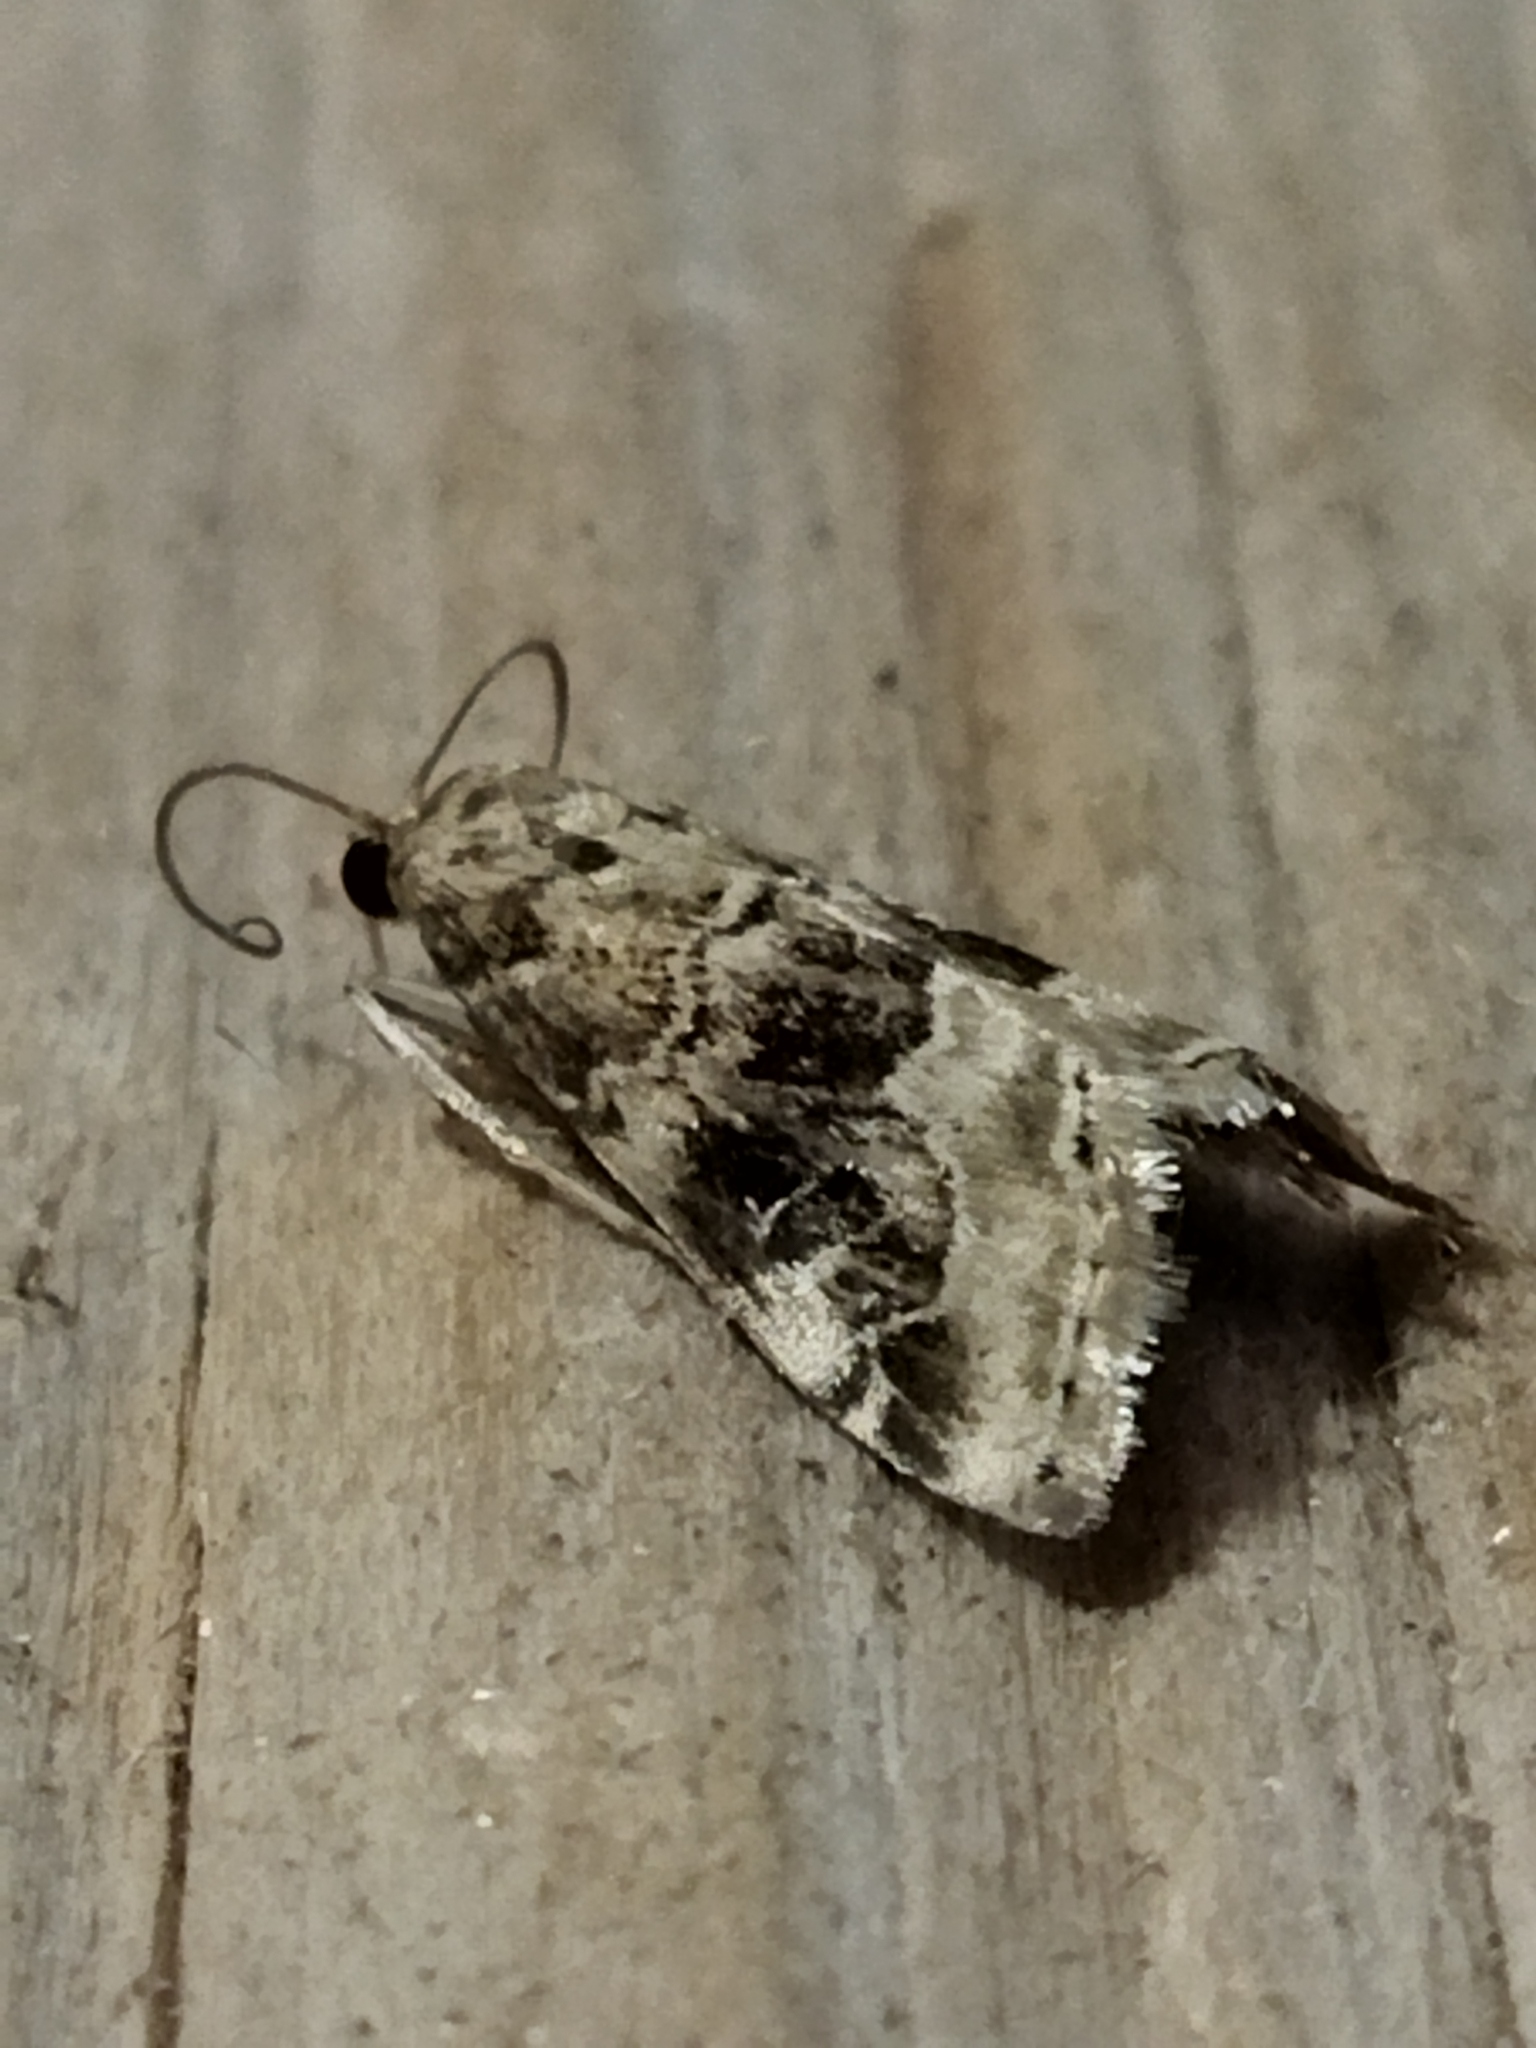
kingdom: Animalia
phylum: Arthropoda
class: Insecta
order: Lepidoptera
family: Crambidae
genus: Hellula
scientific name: Hellula undalis
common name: Cabbage webworm
